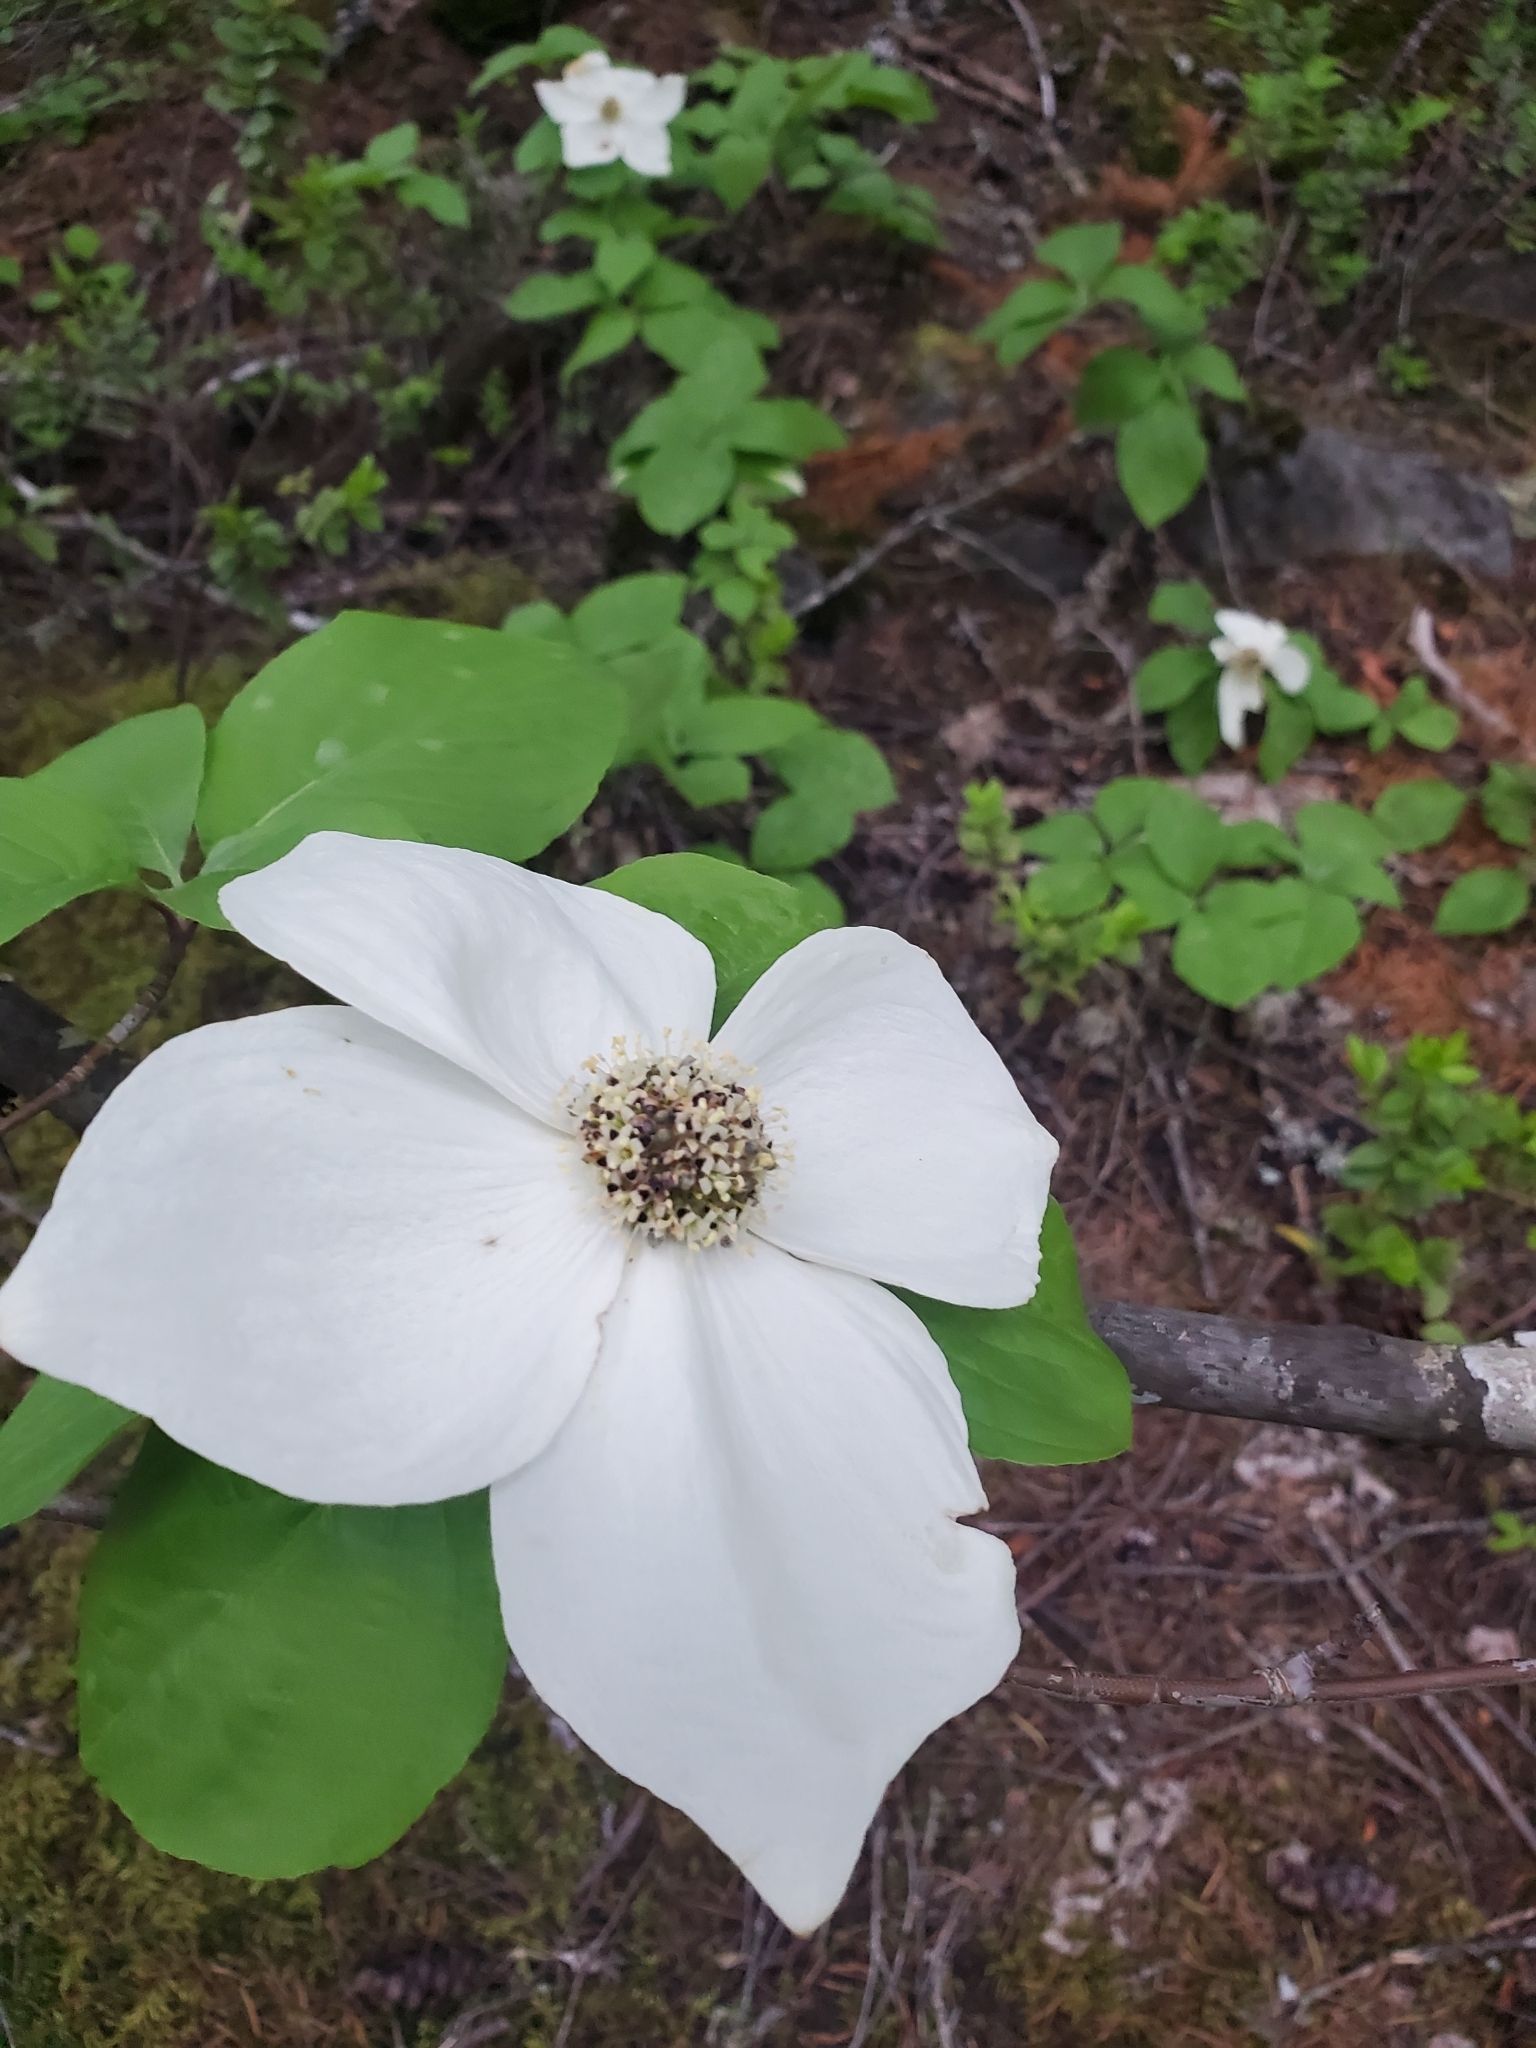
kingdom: Plantae
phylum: Tracheophyta
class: Magnoliopsida
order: Cornales
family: Cornaceae
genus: Cornus
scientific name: Cornus nuttallii
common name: Pacific dogwood
